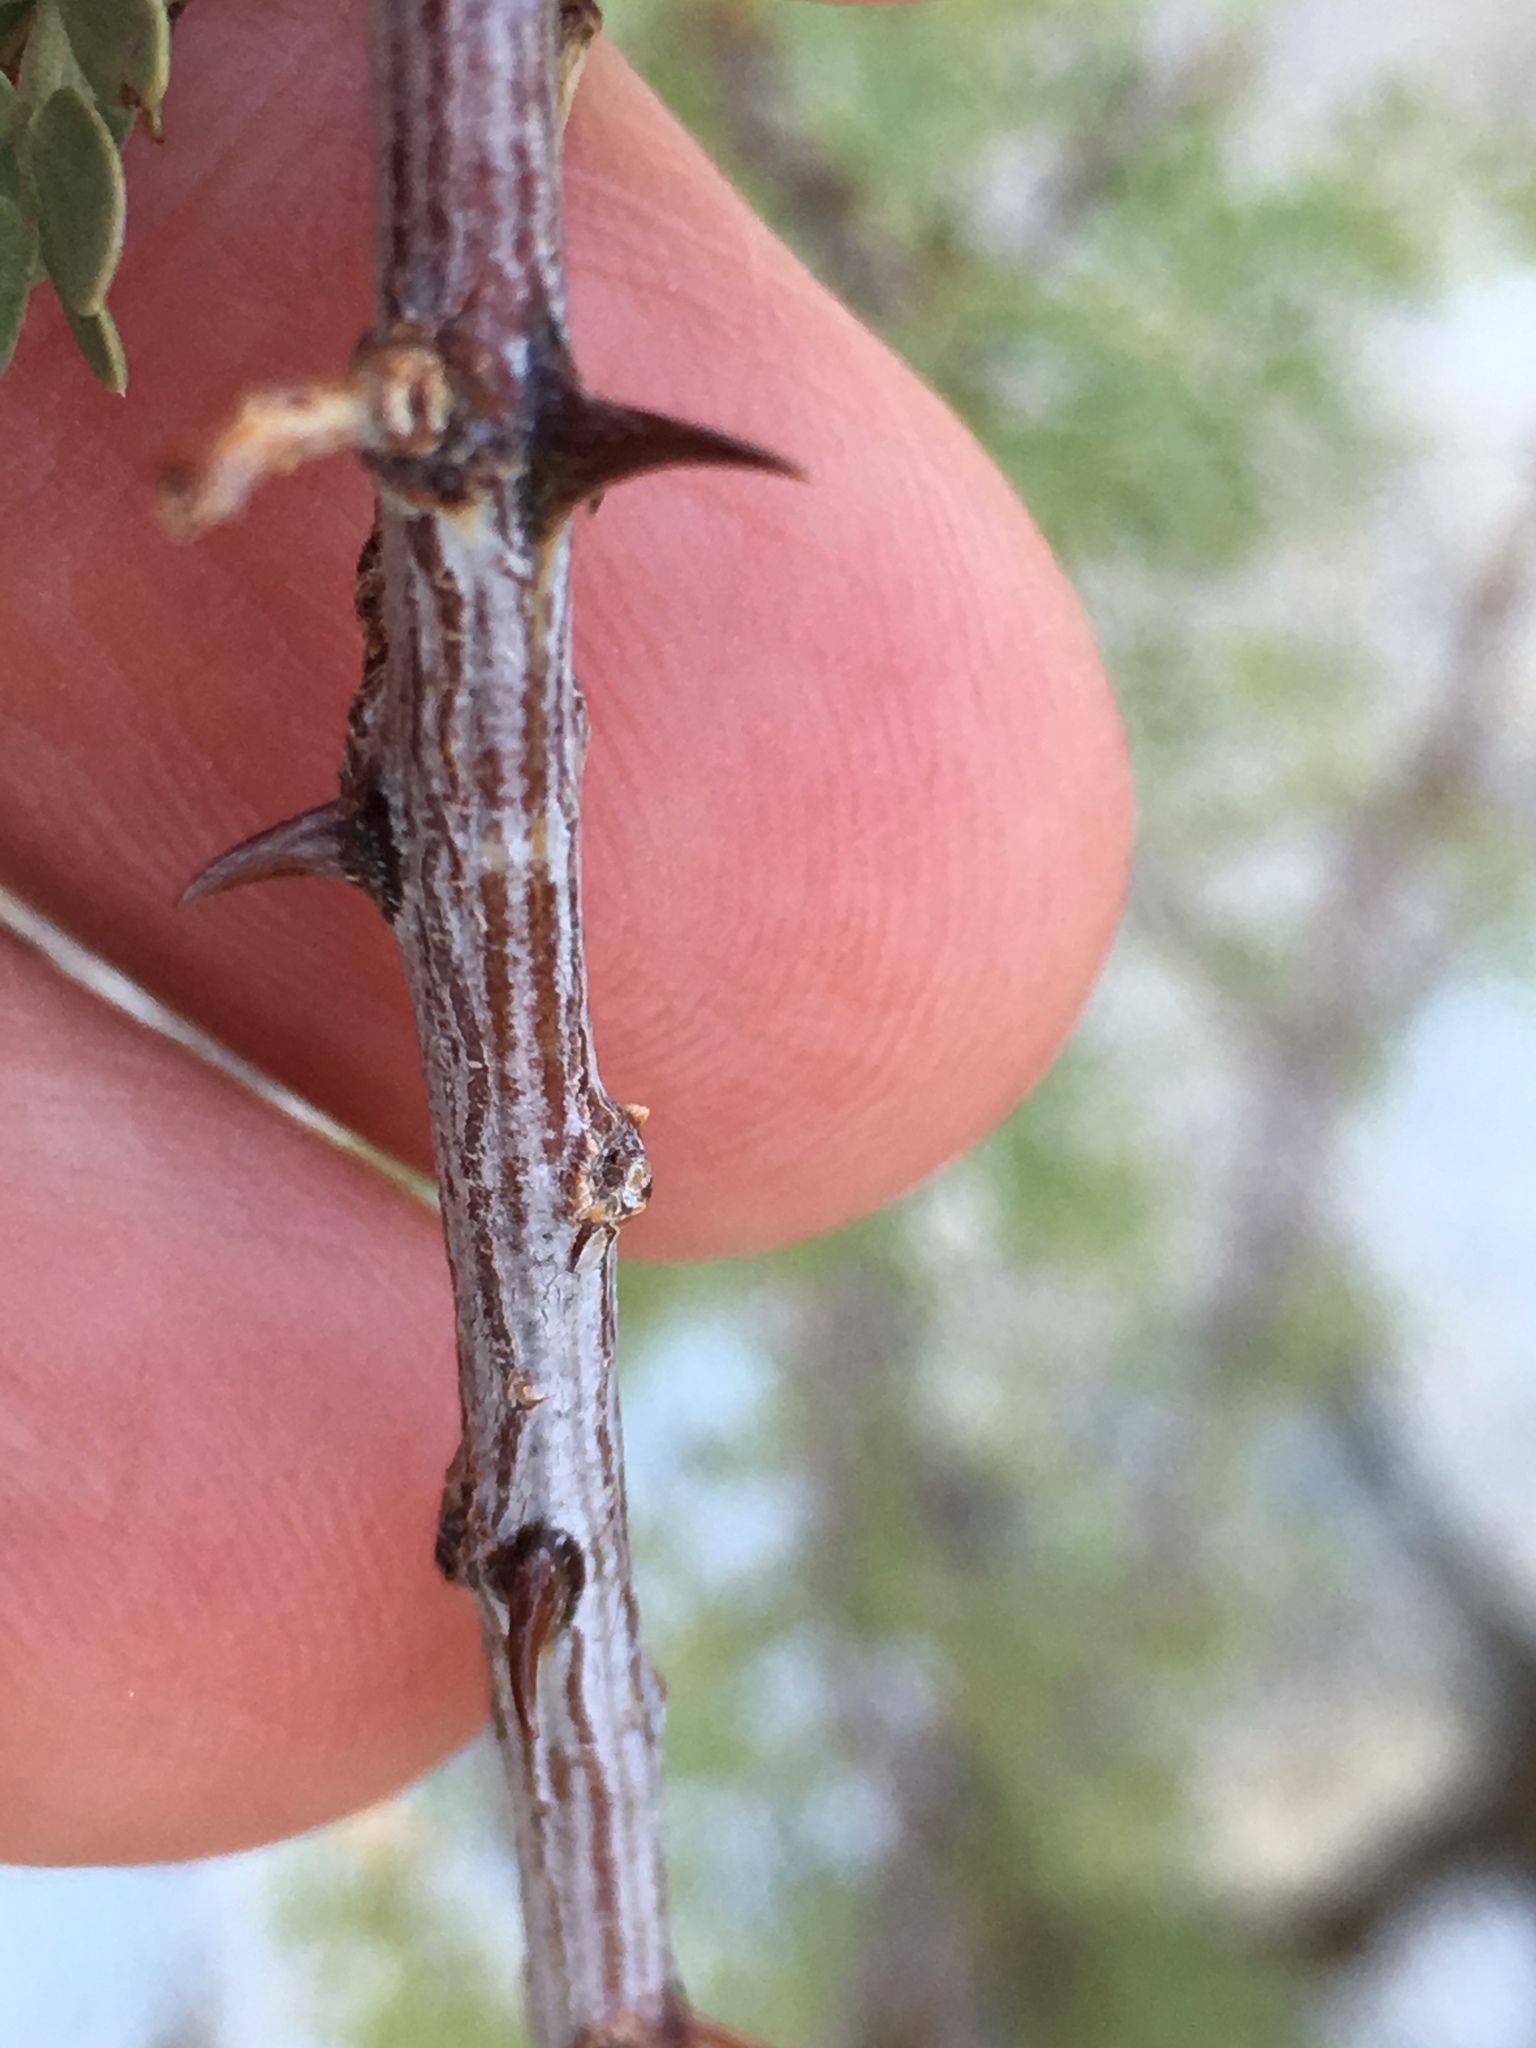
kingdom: Plantae
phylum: Tracheophyta
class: Magnoliopsida
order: Fabales
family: Fabaceae
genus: Senegalia
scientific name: Senegalia greggii
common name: Texas-mimosa
